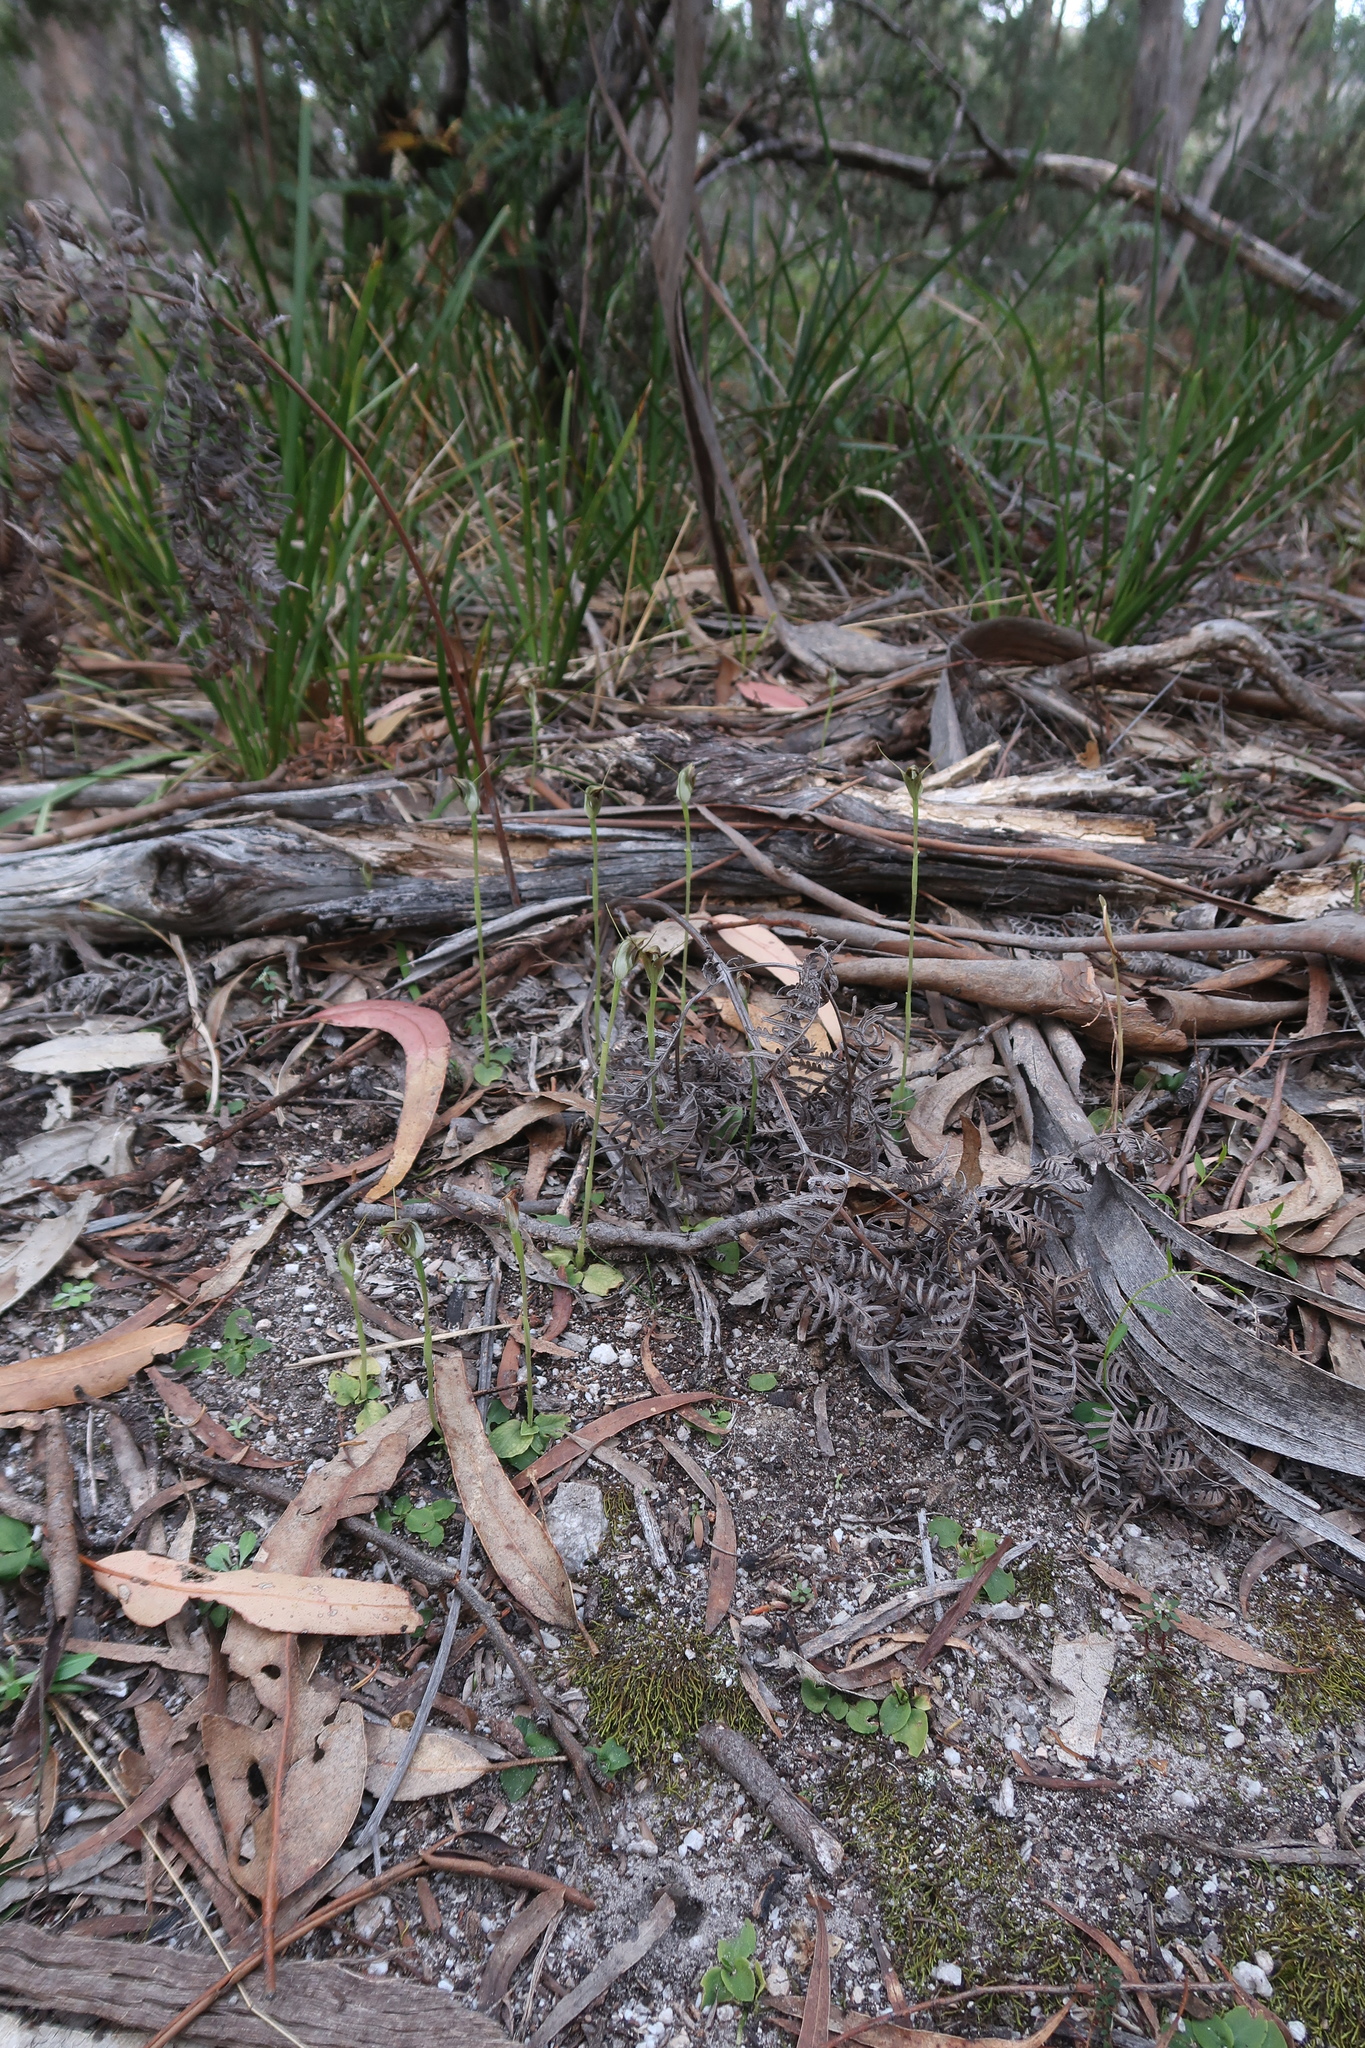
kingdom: Plantae
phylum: Tracheophyta
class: Liliopsida
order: Asparagales
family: Orchidaceae
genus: Pterostylis
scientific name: Pterostylis pedunculata
